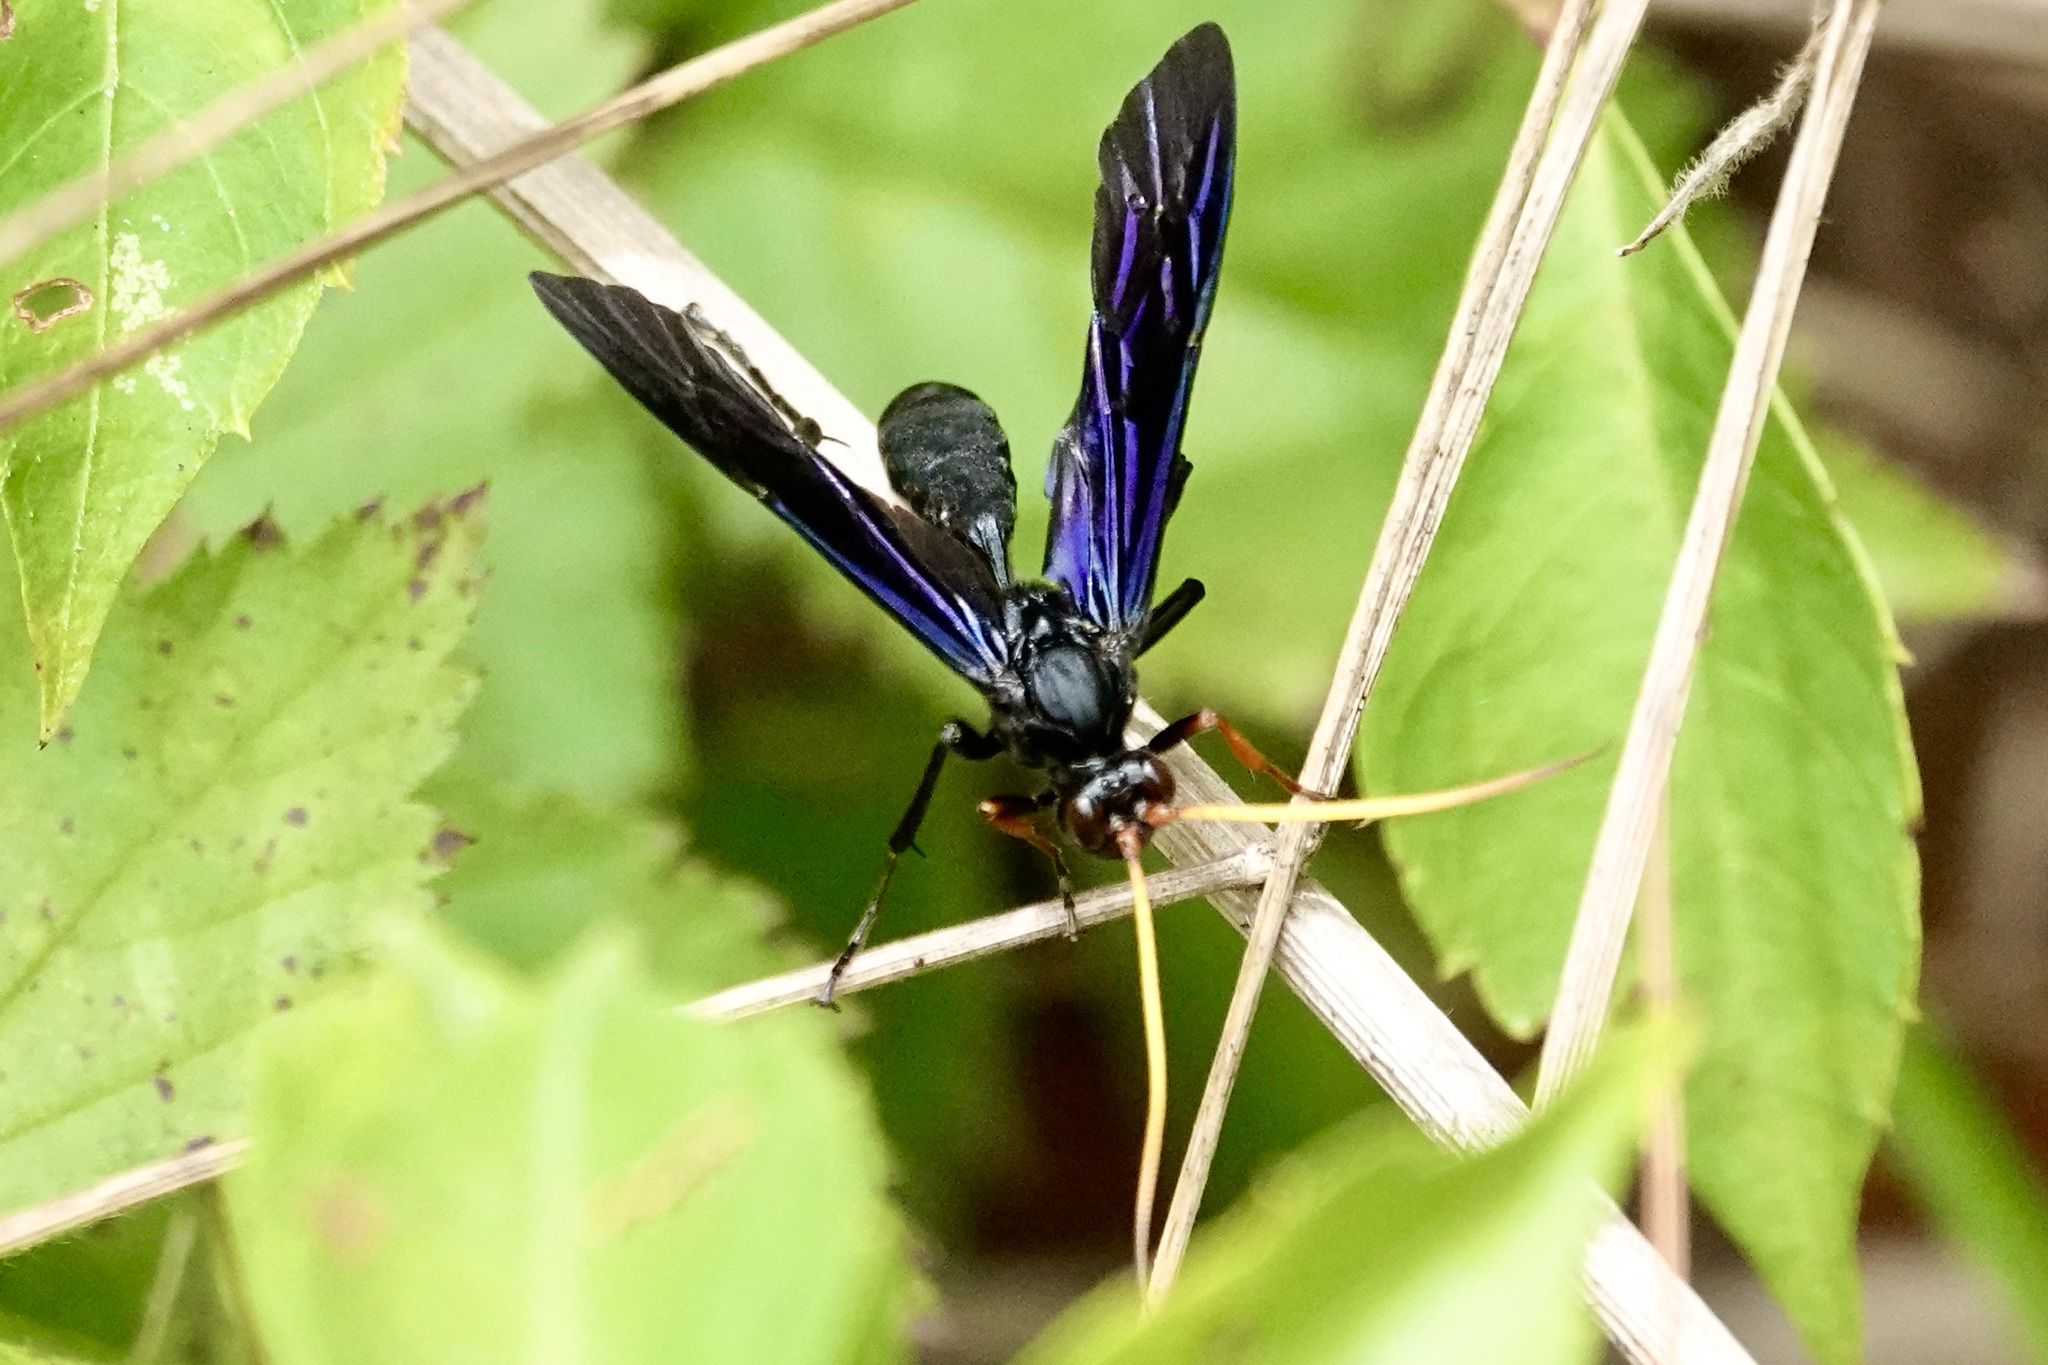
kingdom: Animalia
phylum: Arthropoda
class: Insecta
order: Hymenoptera
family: Ichneumonidae
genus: Gnamptopelta
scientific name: Gnamptopelta obsidianator
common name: Bent-shielded besieger wasp
